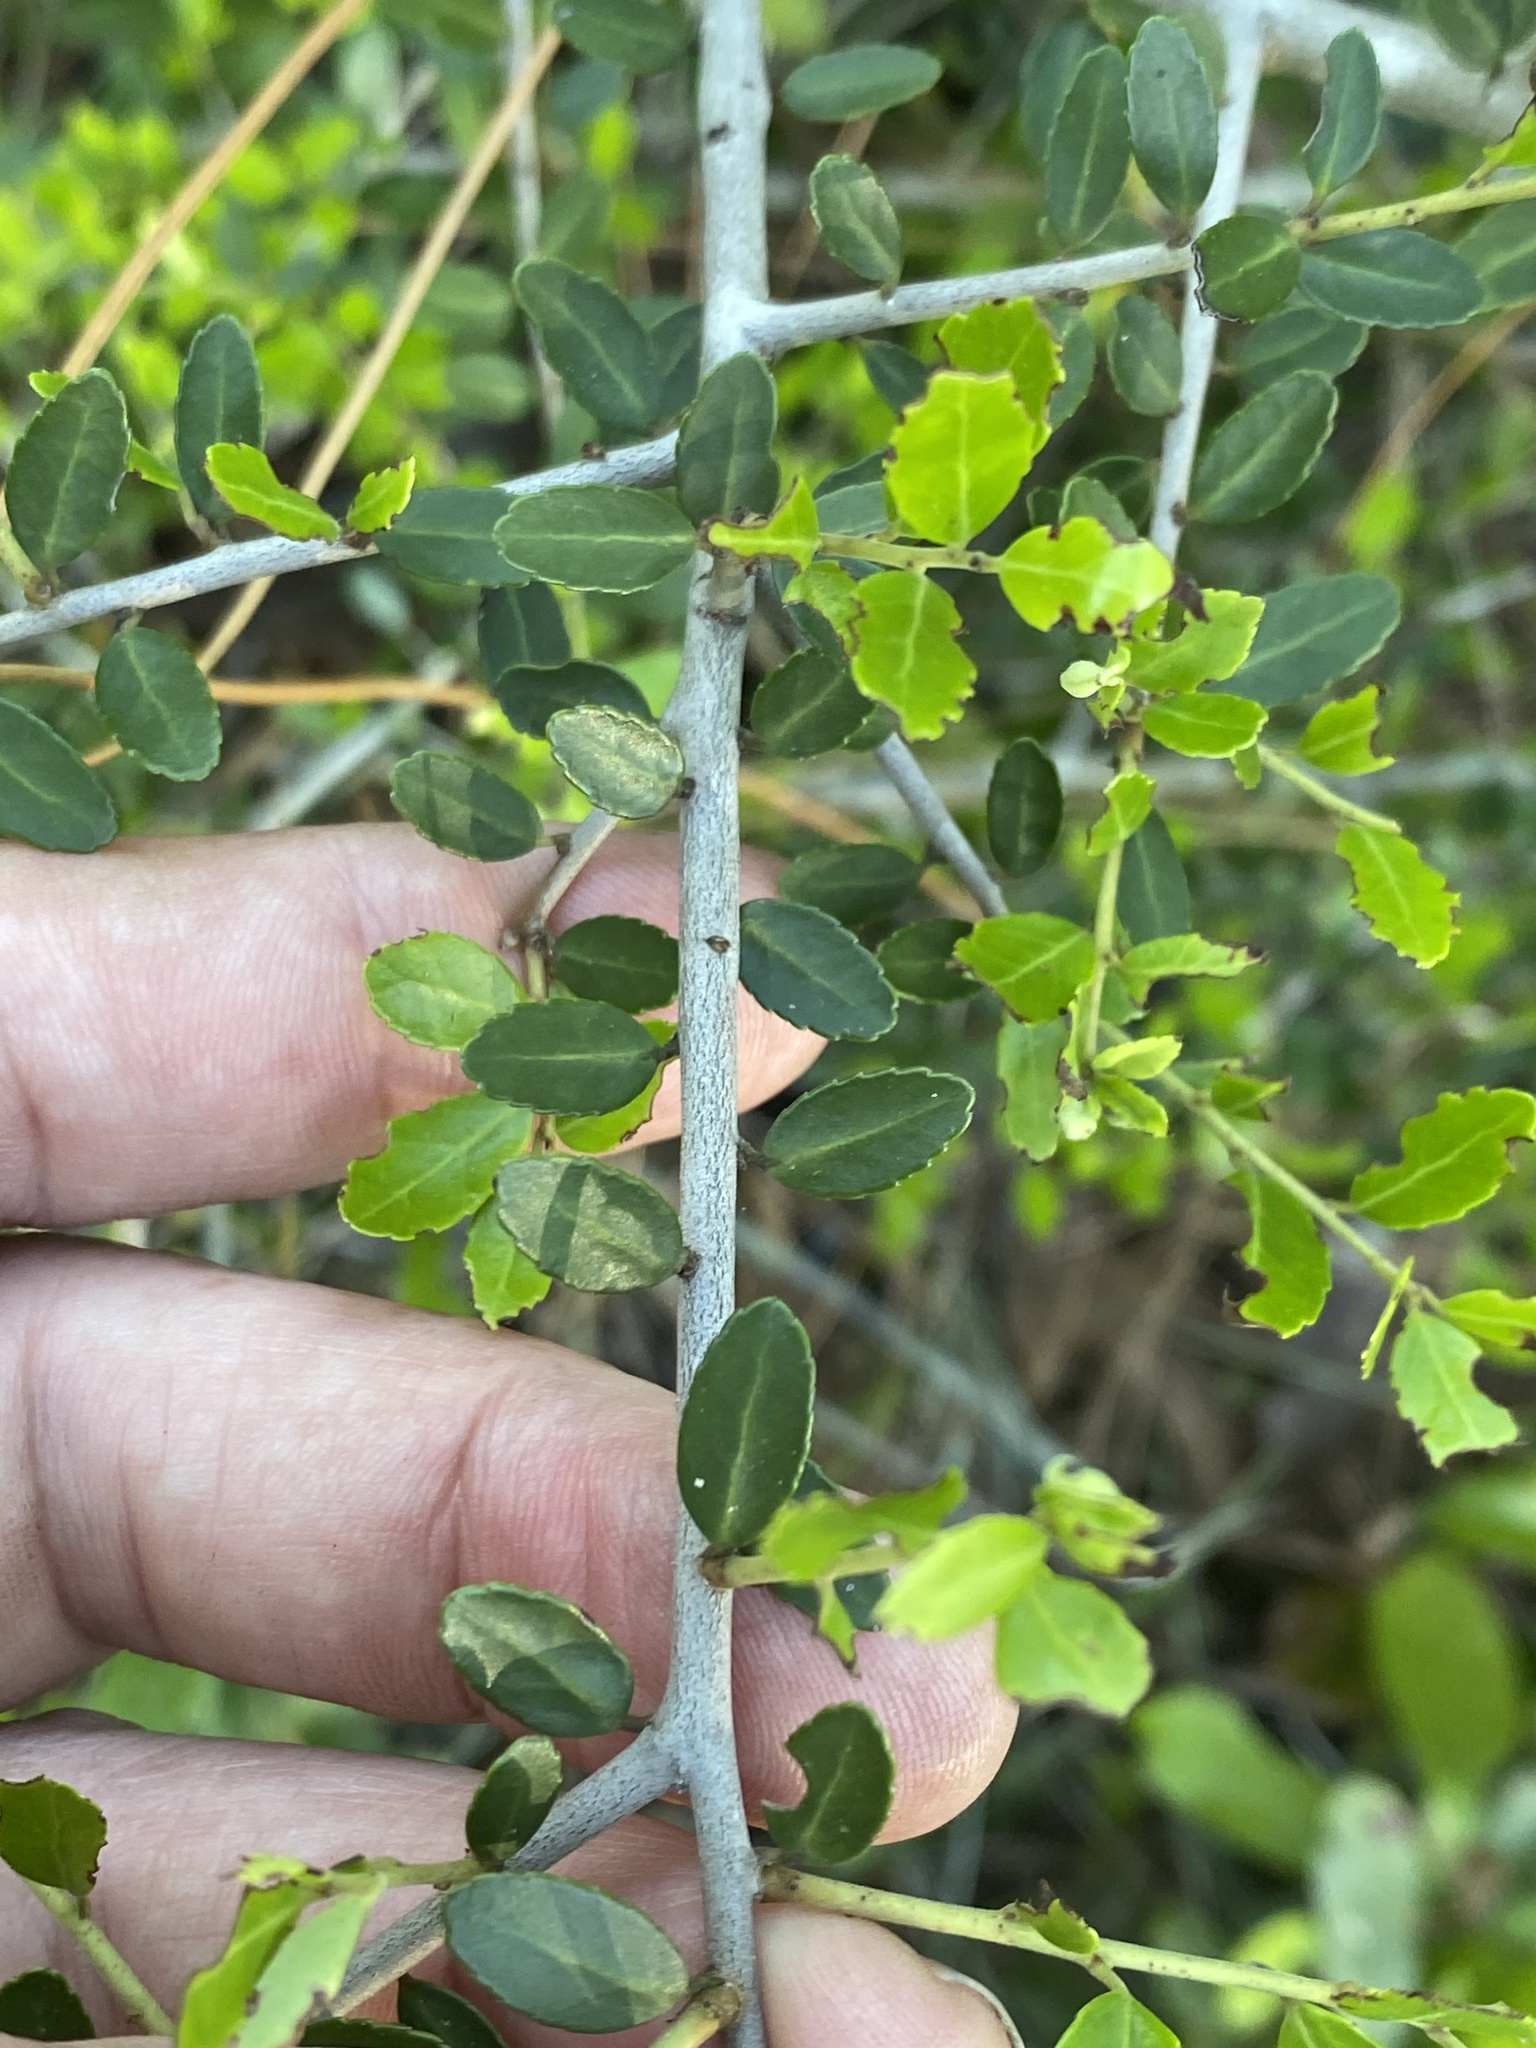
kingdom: Plantae
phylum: Tracheophyta
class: Magnoliopsida
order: Aquifoliales
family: Aquifoliaceae
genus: Ilex
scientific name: Ilex vomitoria
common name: Yaupon holly
